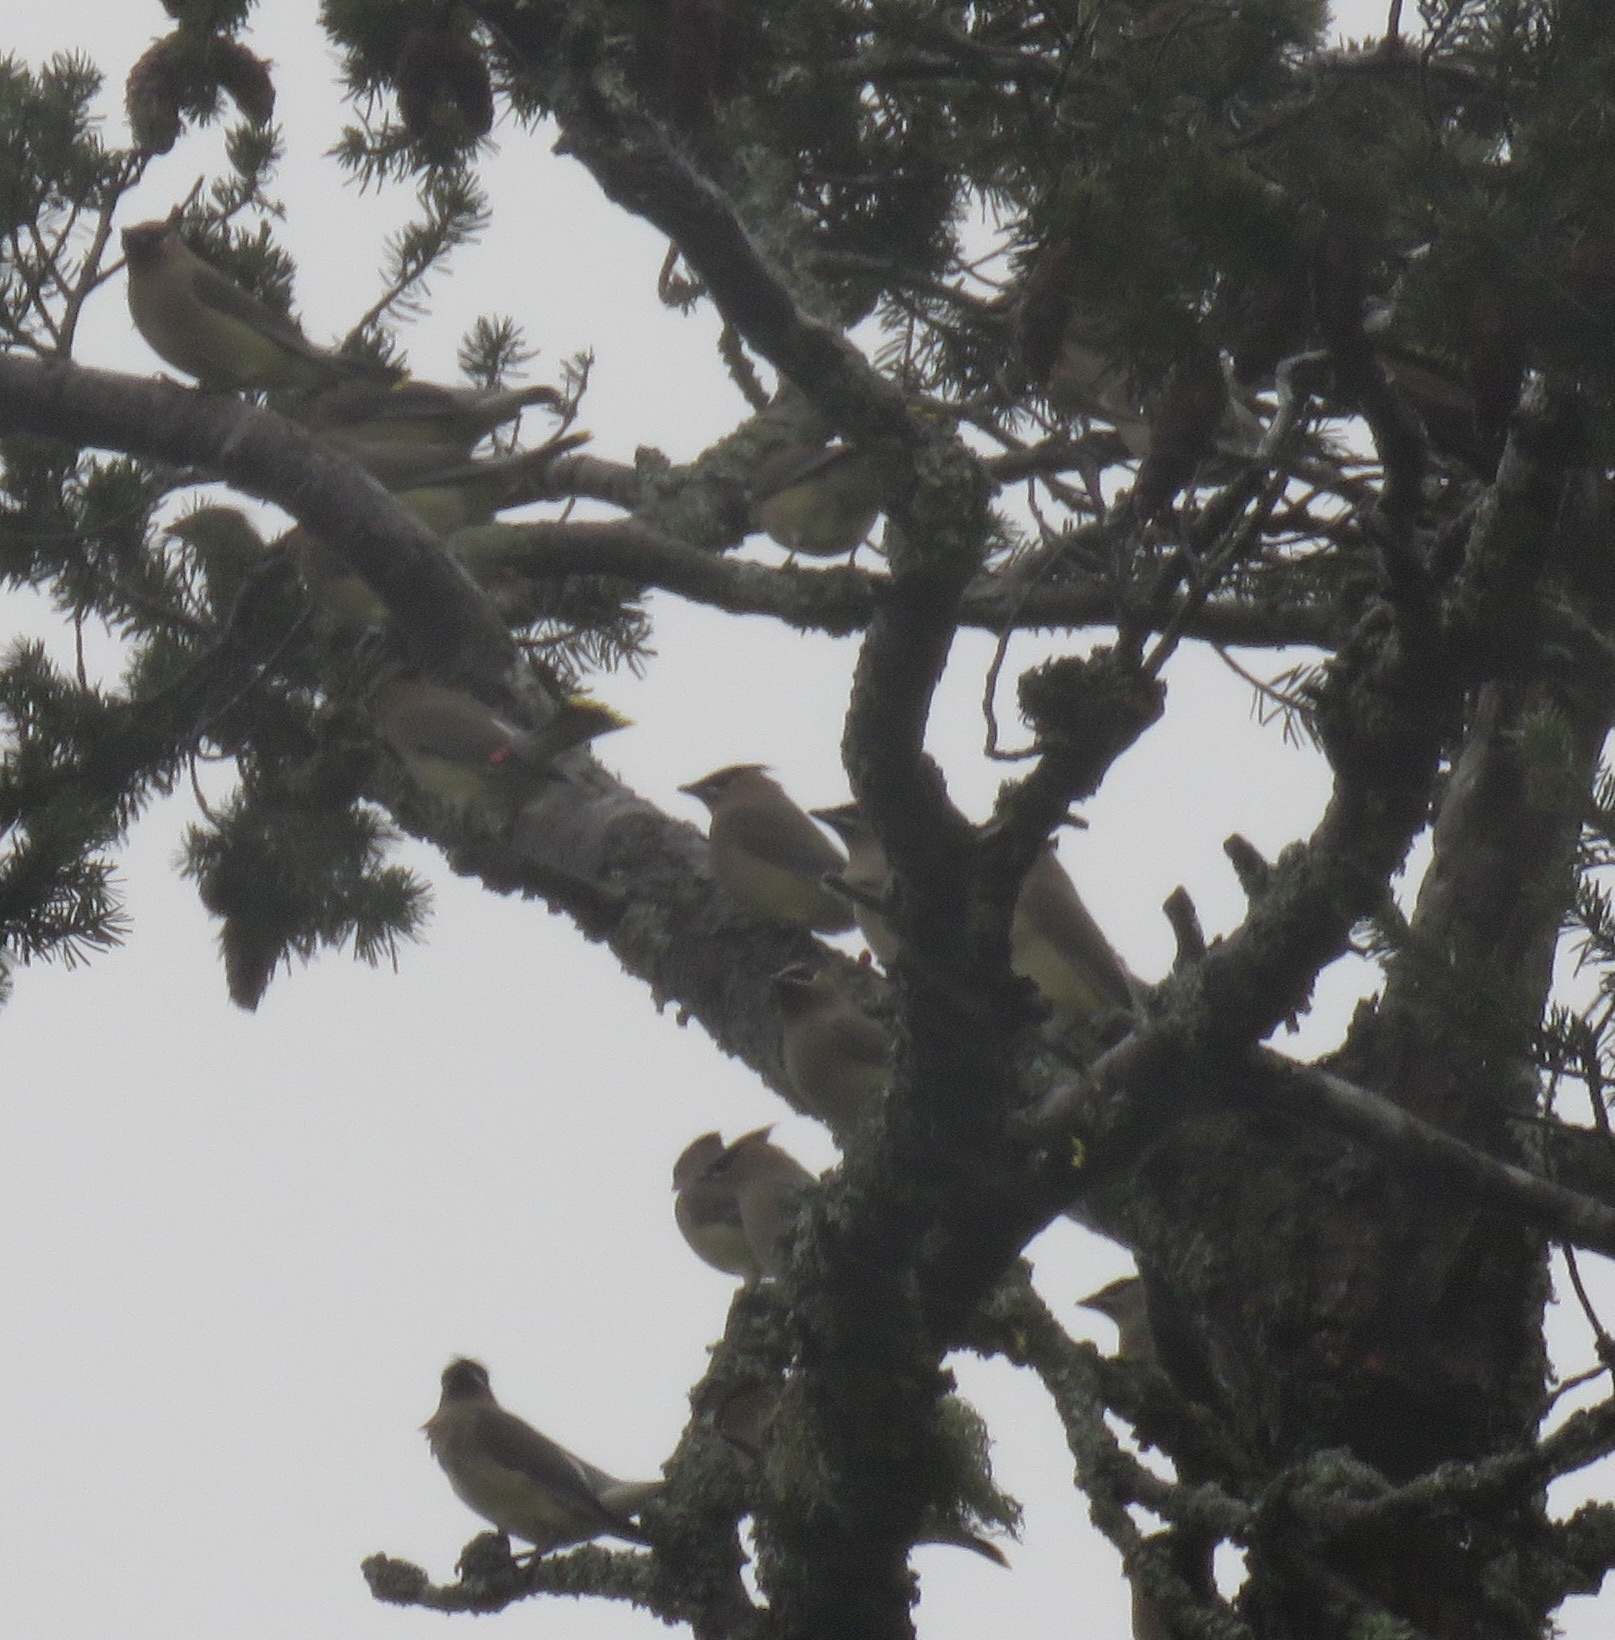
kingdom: Animalia
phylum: Chordata
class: Aves
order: Passeriformes
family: Bombycillidae
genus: Bombycilla
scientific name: Bombycilla cedrorum
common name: Cedar waxwing
